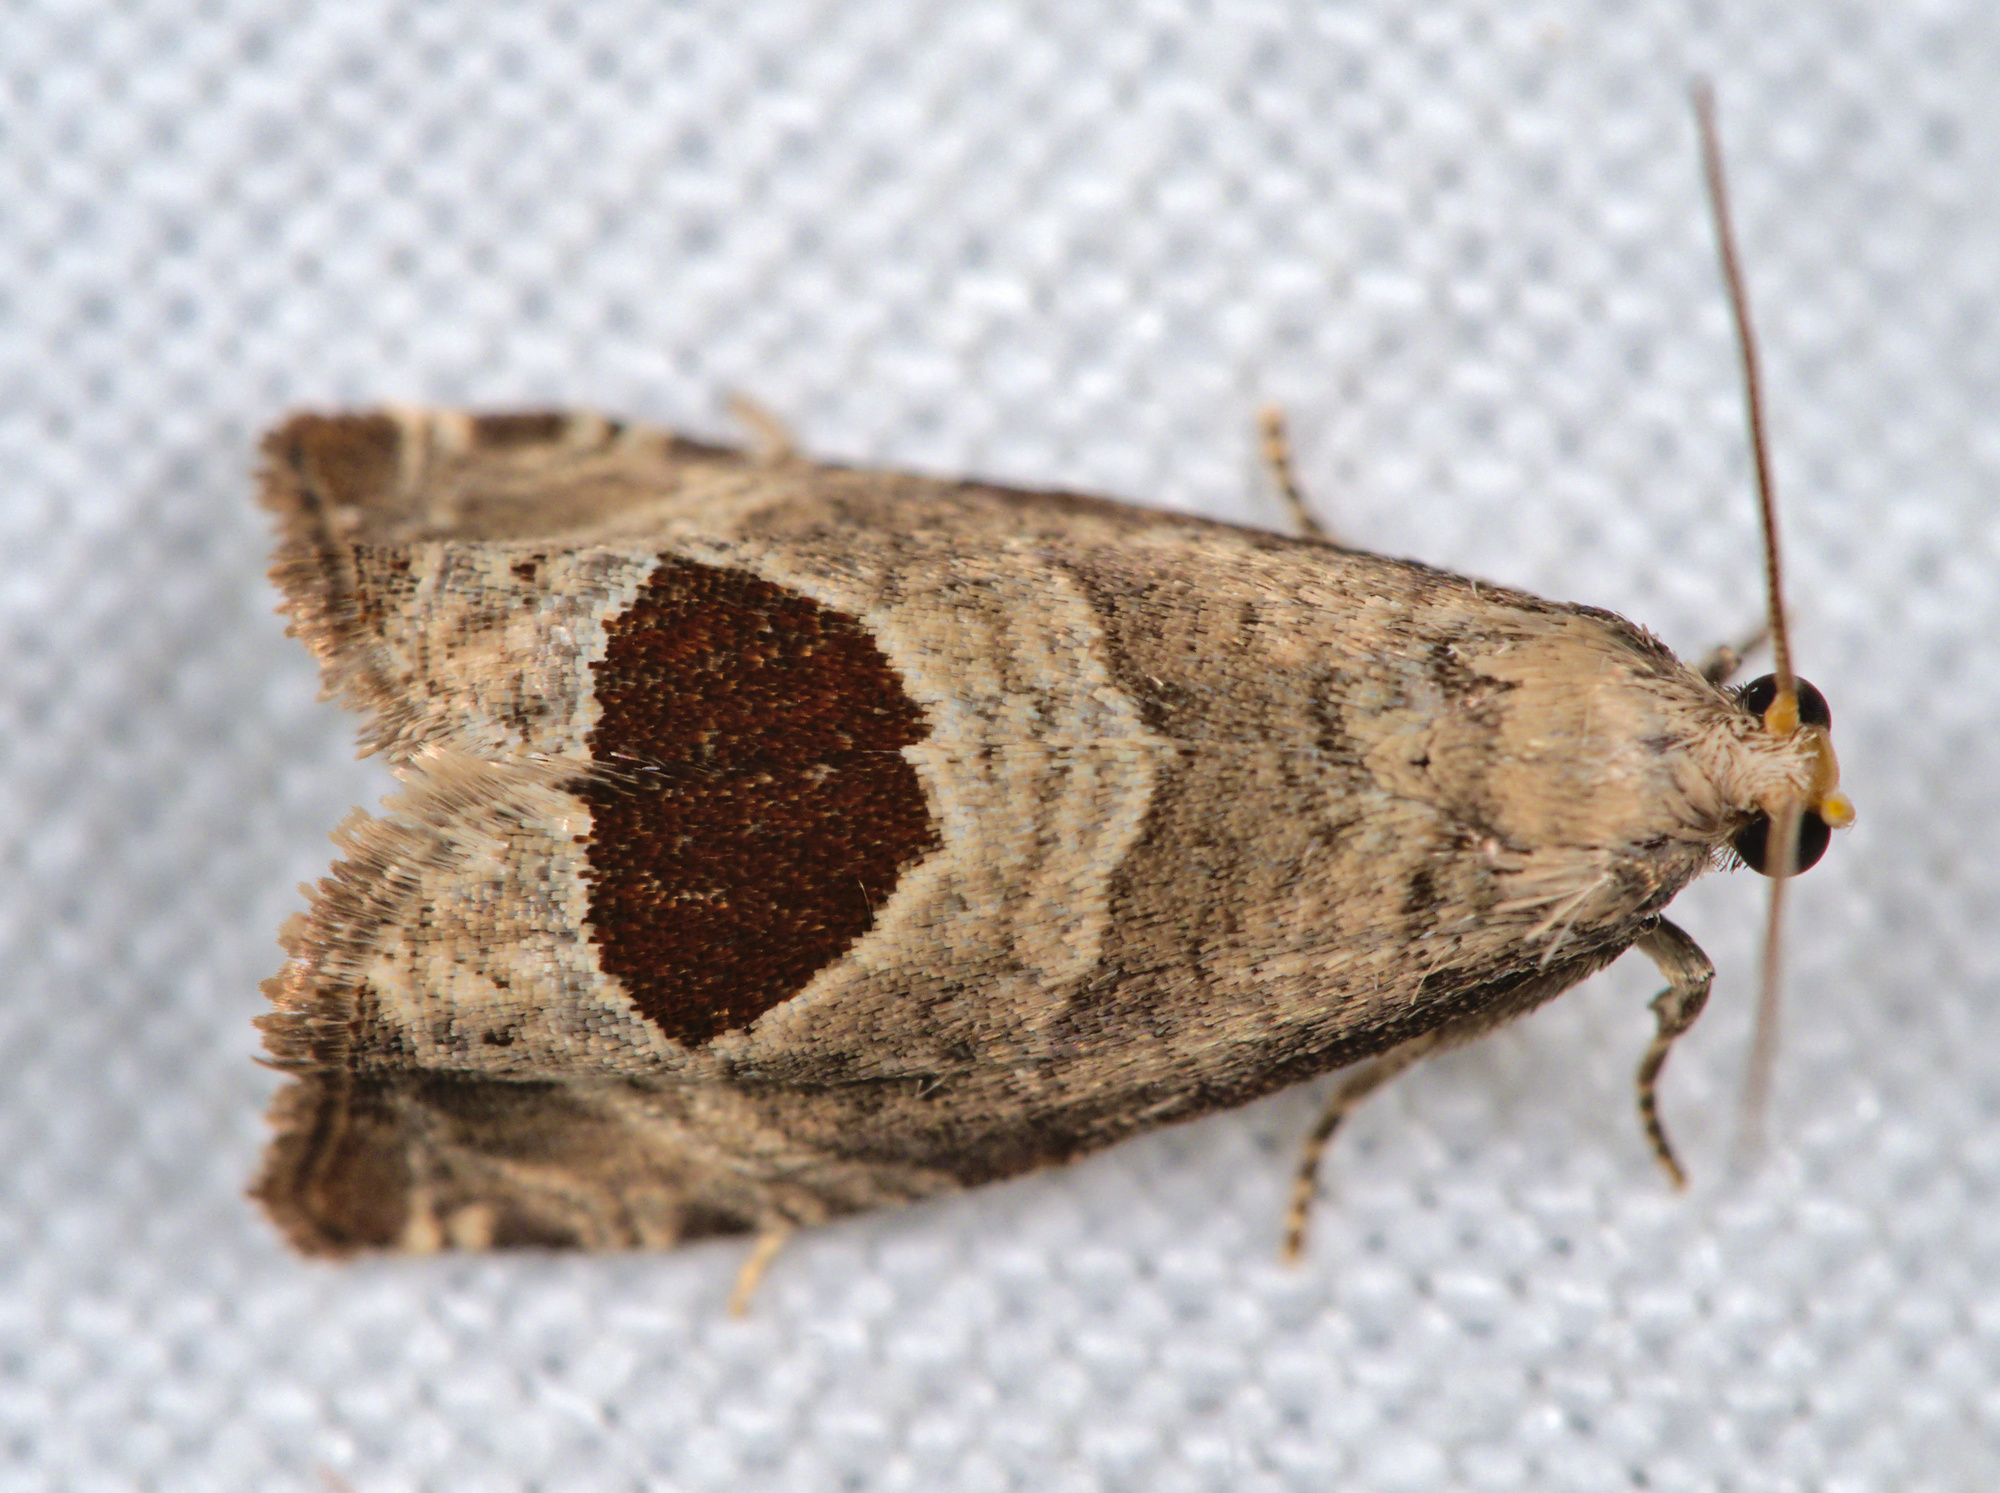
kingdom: Animalia
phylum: Arthropoda
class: Insecta
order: Lepidoptera
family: Tortricidae
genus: Notocelia
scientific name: Notocelia uddmanniana
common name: Bramble shoot moth
